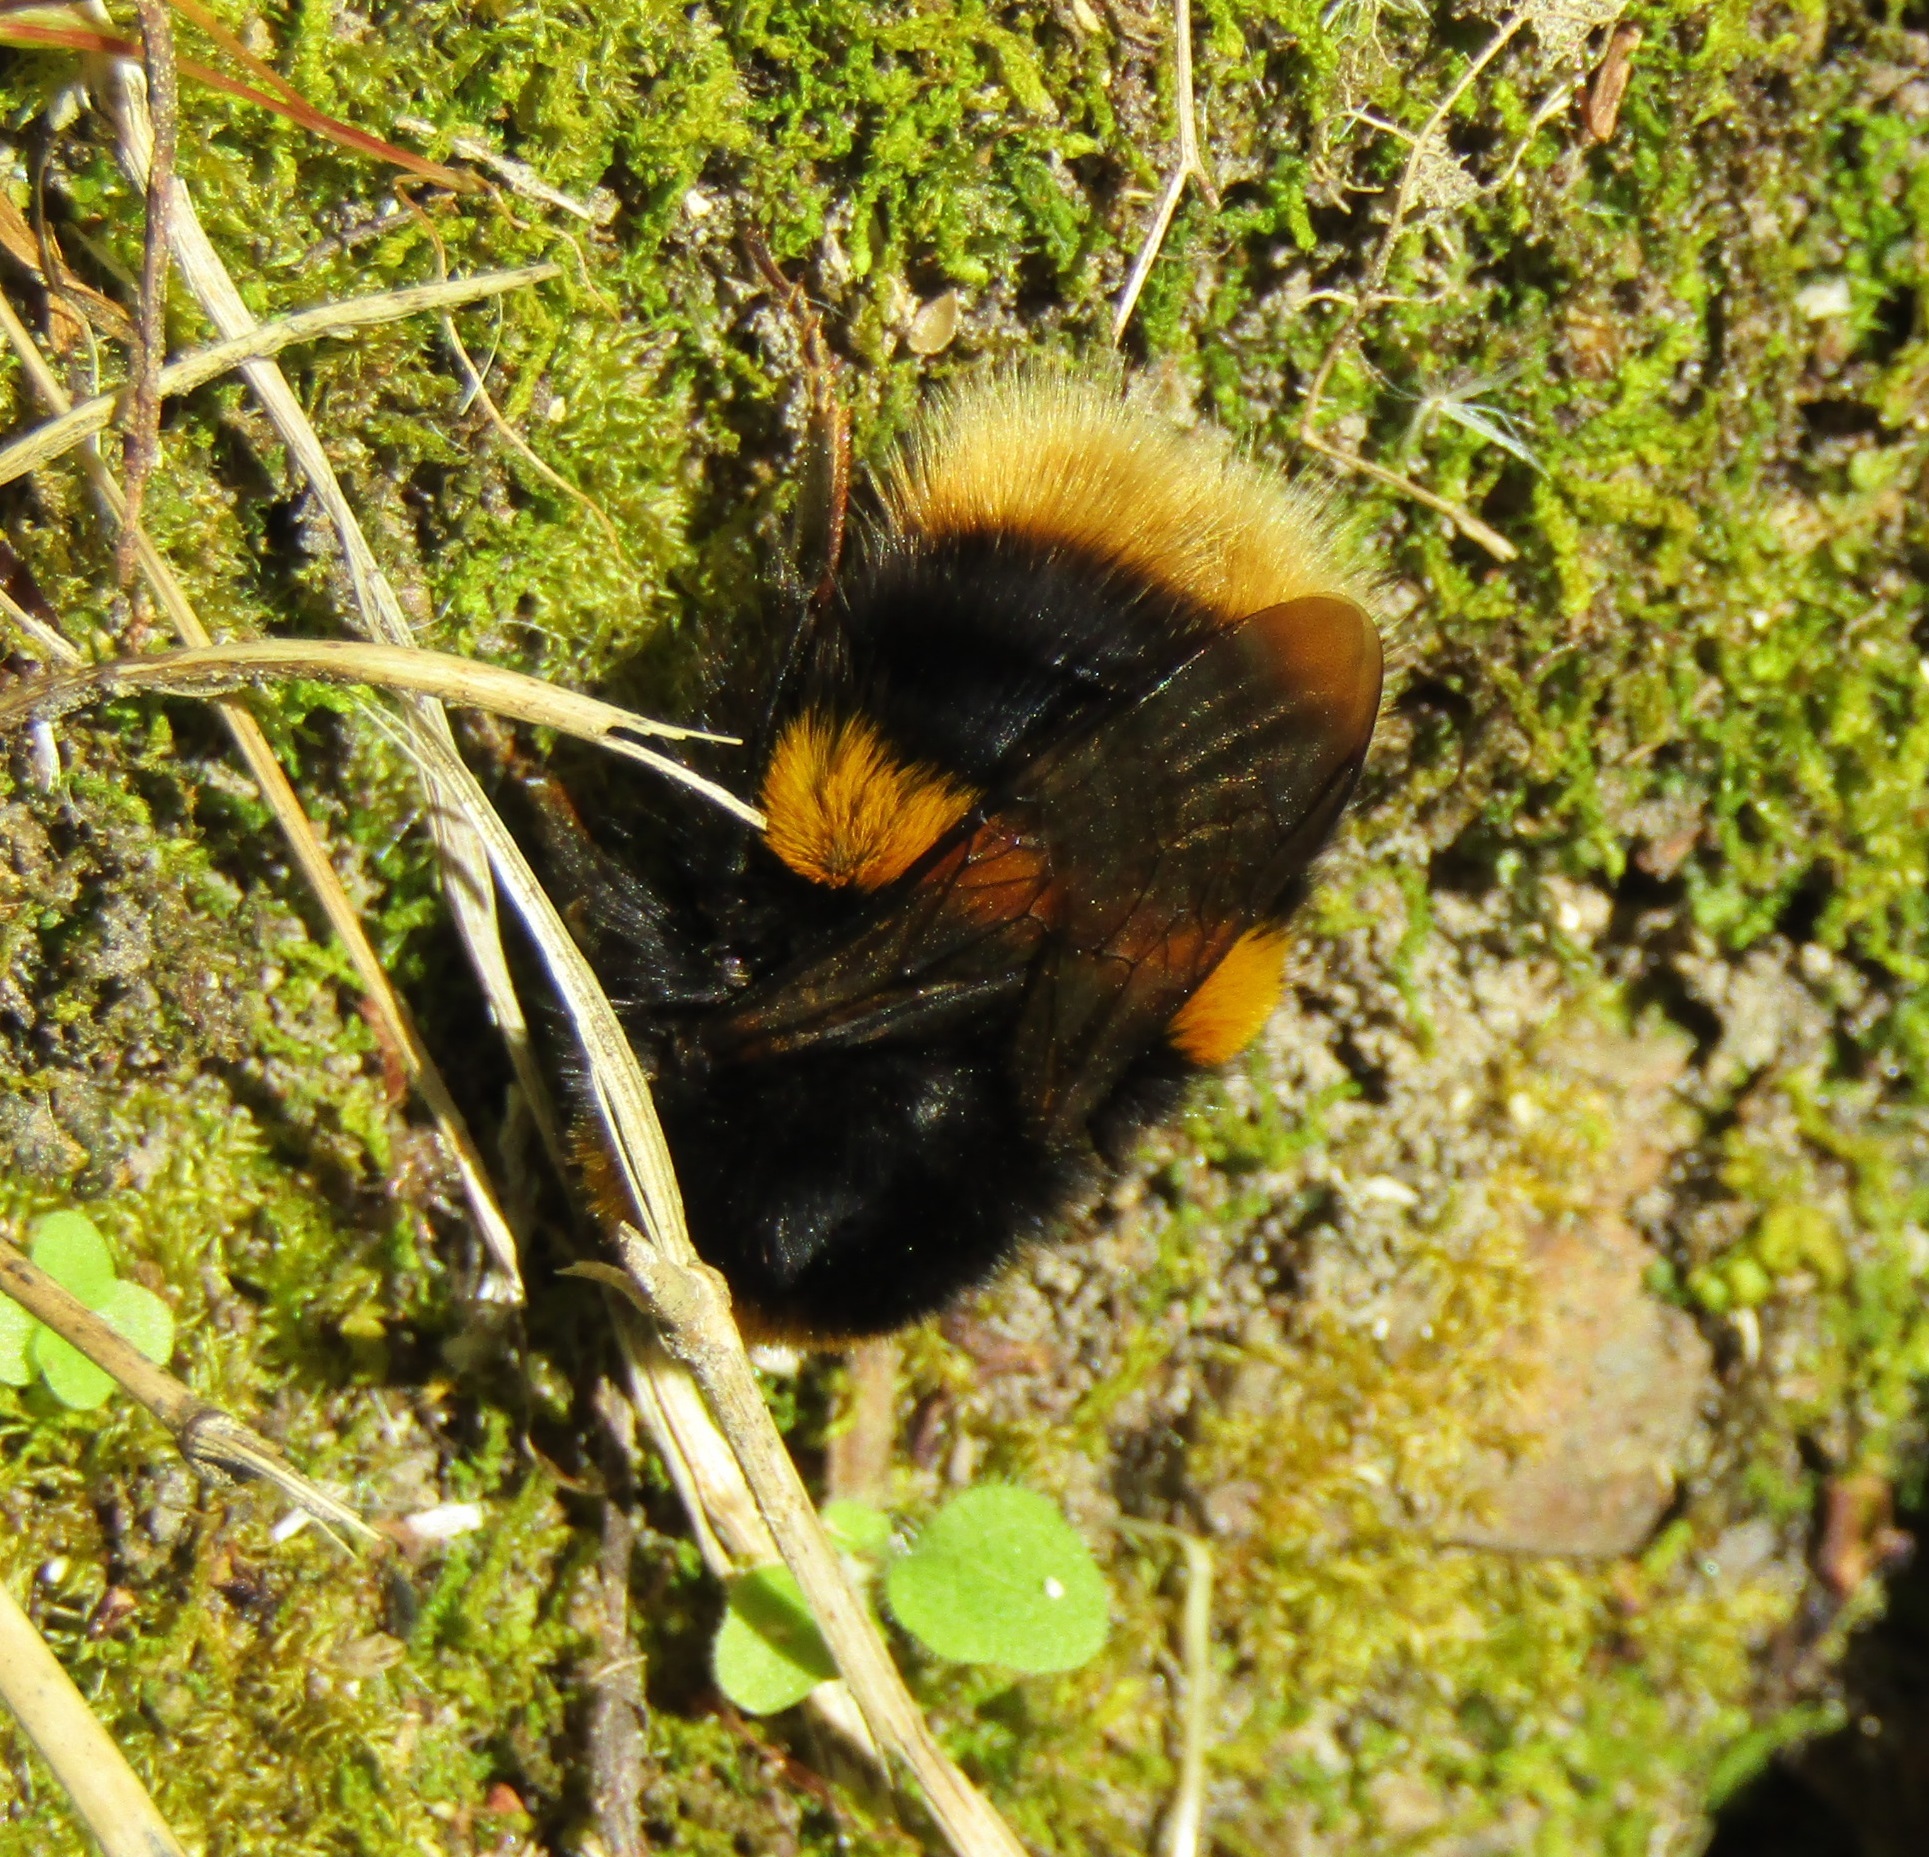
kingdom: Animalia
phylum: Arthropoda
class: Insecta
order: Hymenoptera
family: Apidae
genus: Bombus
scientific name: Bombus terrestris
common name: Buff-tailed bumblebee
